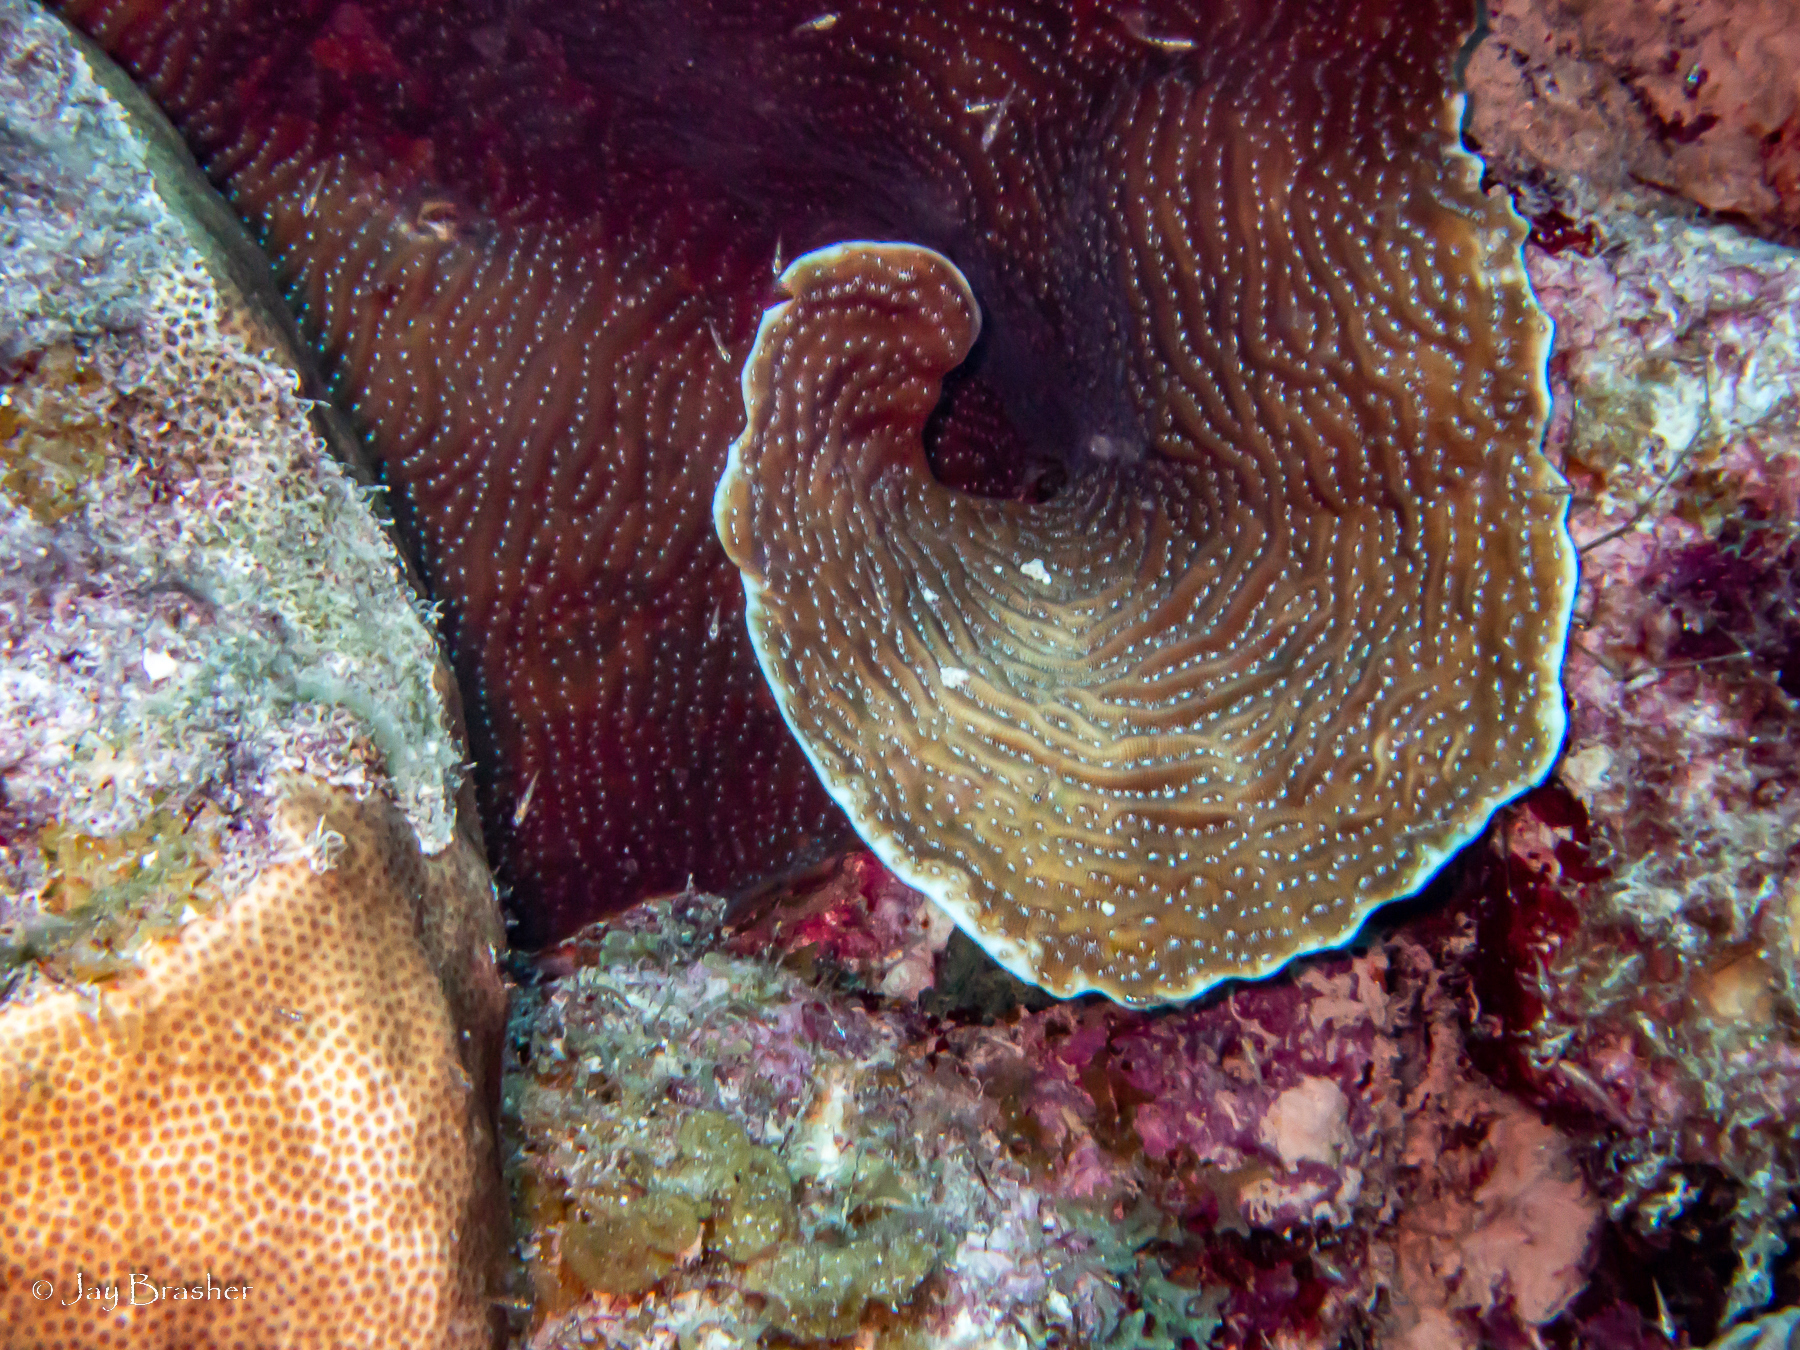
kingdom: Animalia
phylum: Cnidaria
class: Anthozoa
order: Scleractinia
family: Agariciidae
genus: Agaricia
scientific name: Agaricia lamarcki
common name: Lamarck's sheet coral
